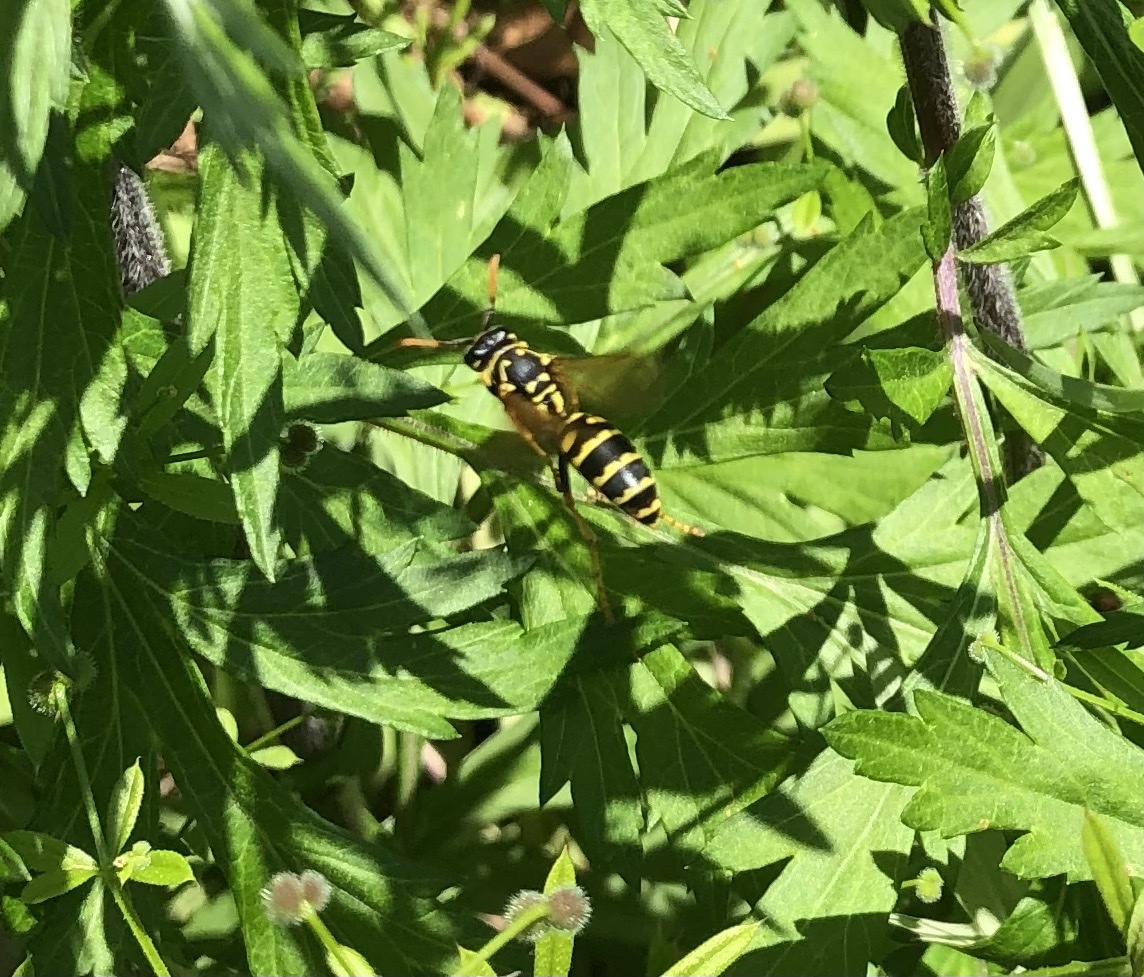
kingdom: Animalia
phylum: Arthropoda
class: Insecta
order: Hymenoptera
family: Eumenidae
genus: Polistes
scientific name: Polistes dominula
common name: Paper wasp
